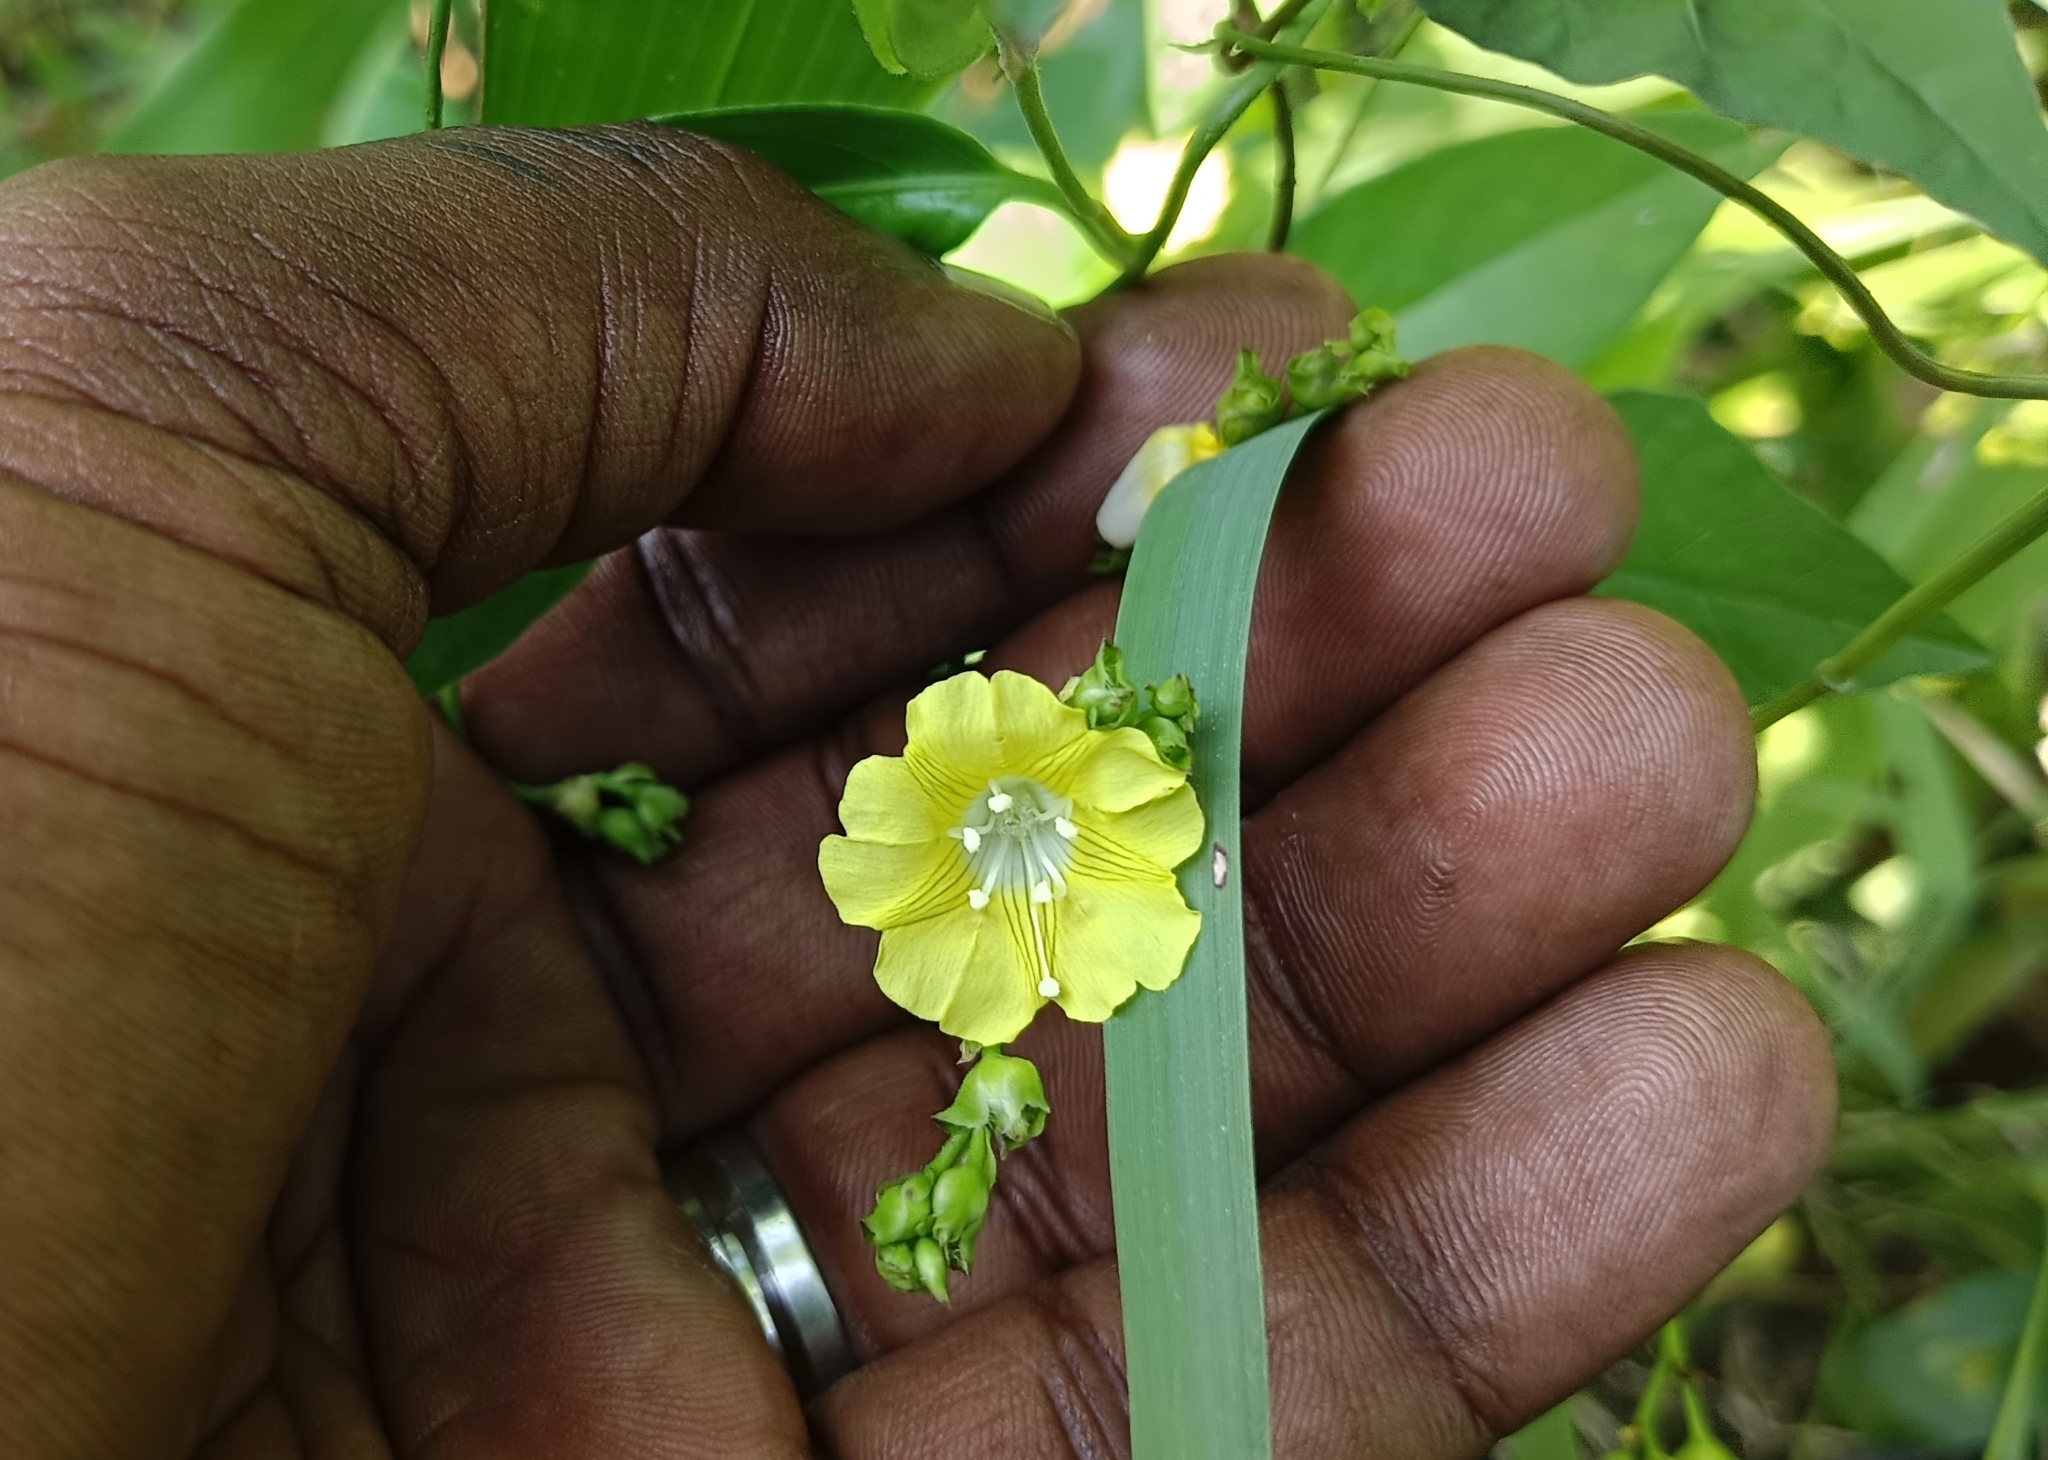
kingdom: Plantae
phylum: Tracheophyta
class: Magnoliopsida
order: Solanales
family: Convolvulaceae
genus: Merremia
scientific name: Merremia hederacea
